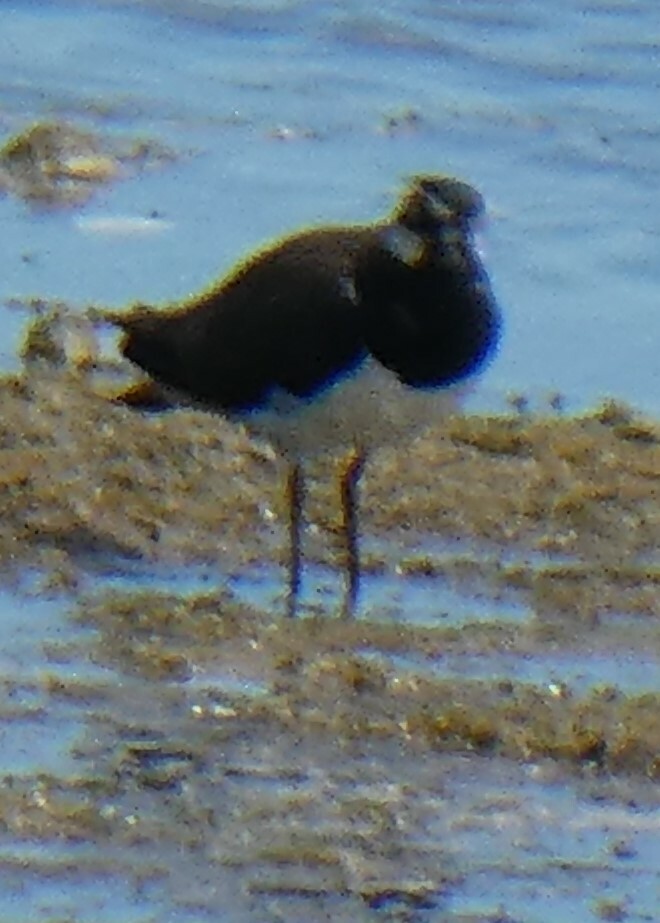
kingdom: Animalia
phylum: Chordata
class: Aves
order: Charadriiformes
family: Charadriidae
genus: Vanellus
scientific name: Vanellus vanellus
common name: Northern lapwing
